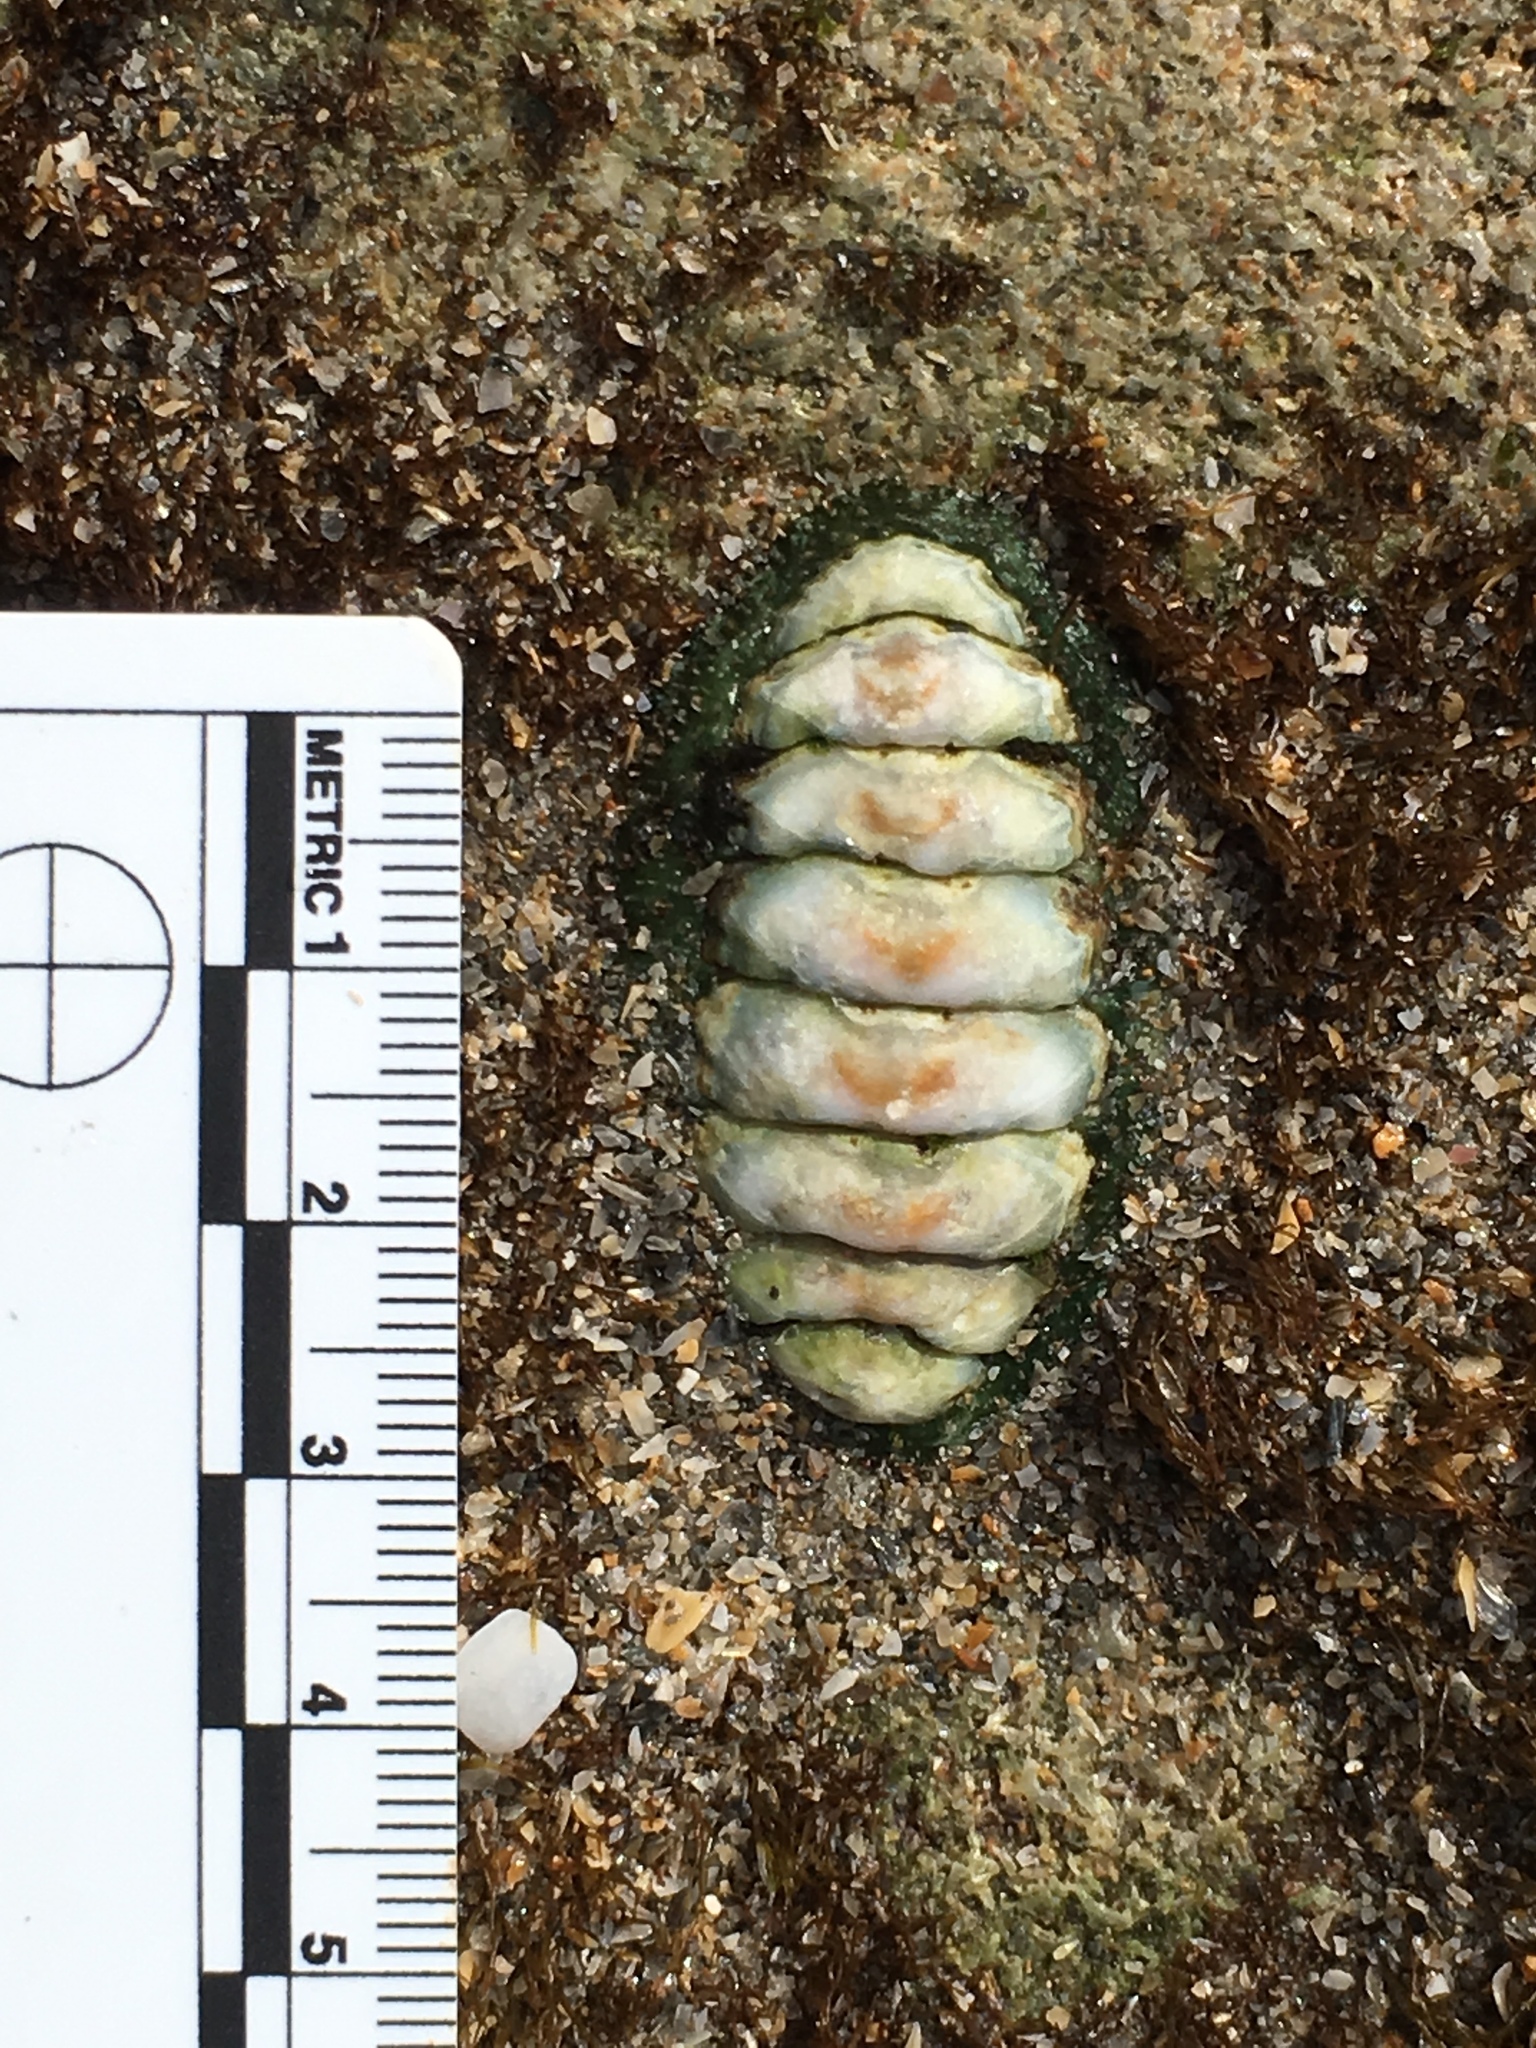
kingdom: Animalia
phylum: Mollusca
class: Polyplacophora
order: Chitonida
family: Tonicellidae
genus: Ceratozona
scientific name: Ceratozona squalida
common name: Rough-girdled chiton
